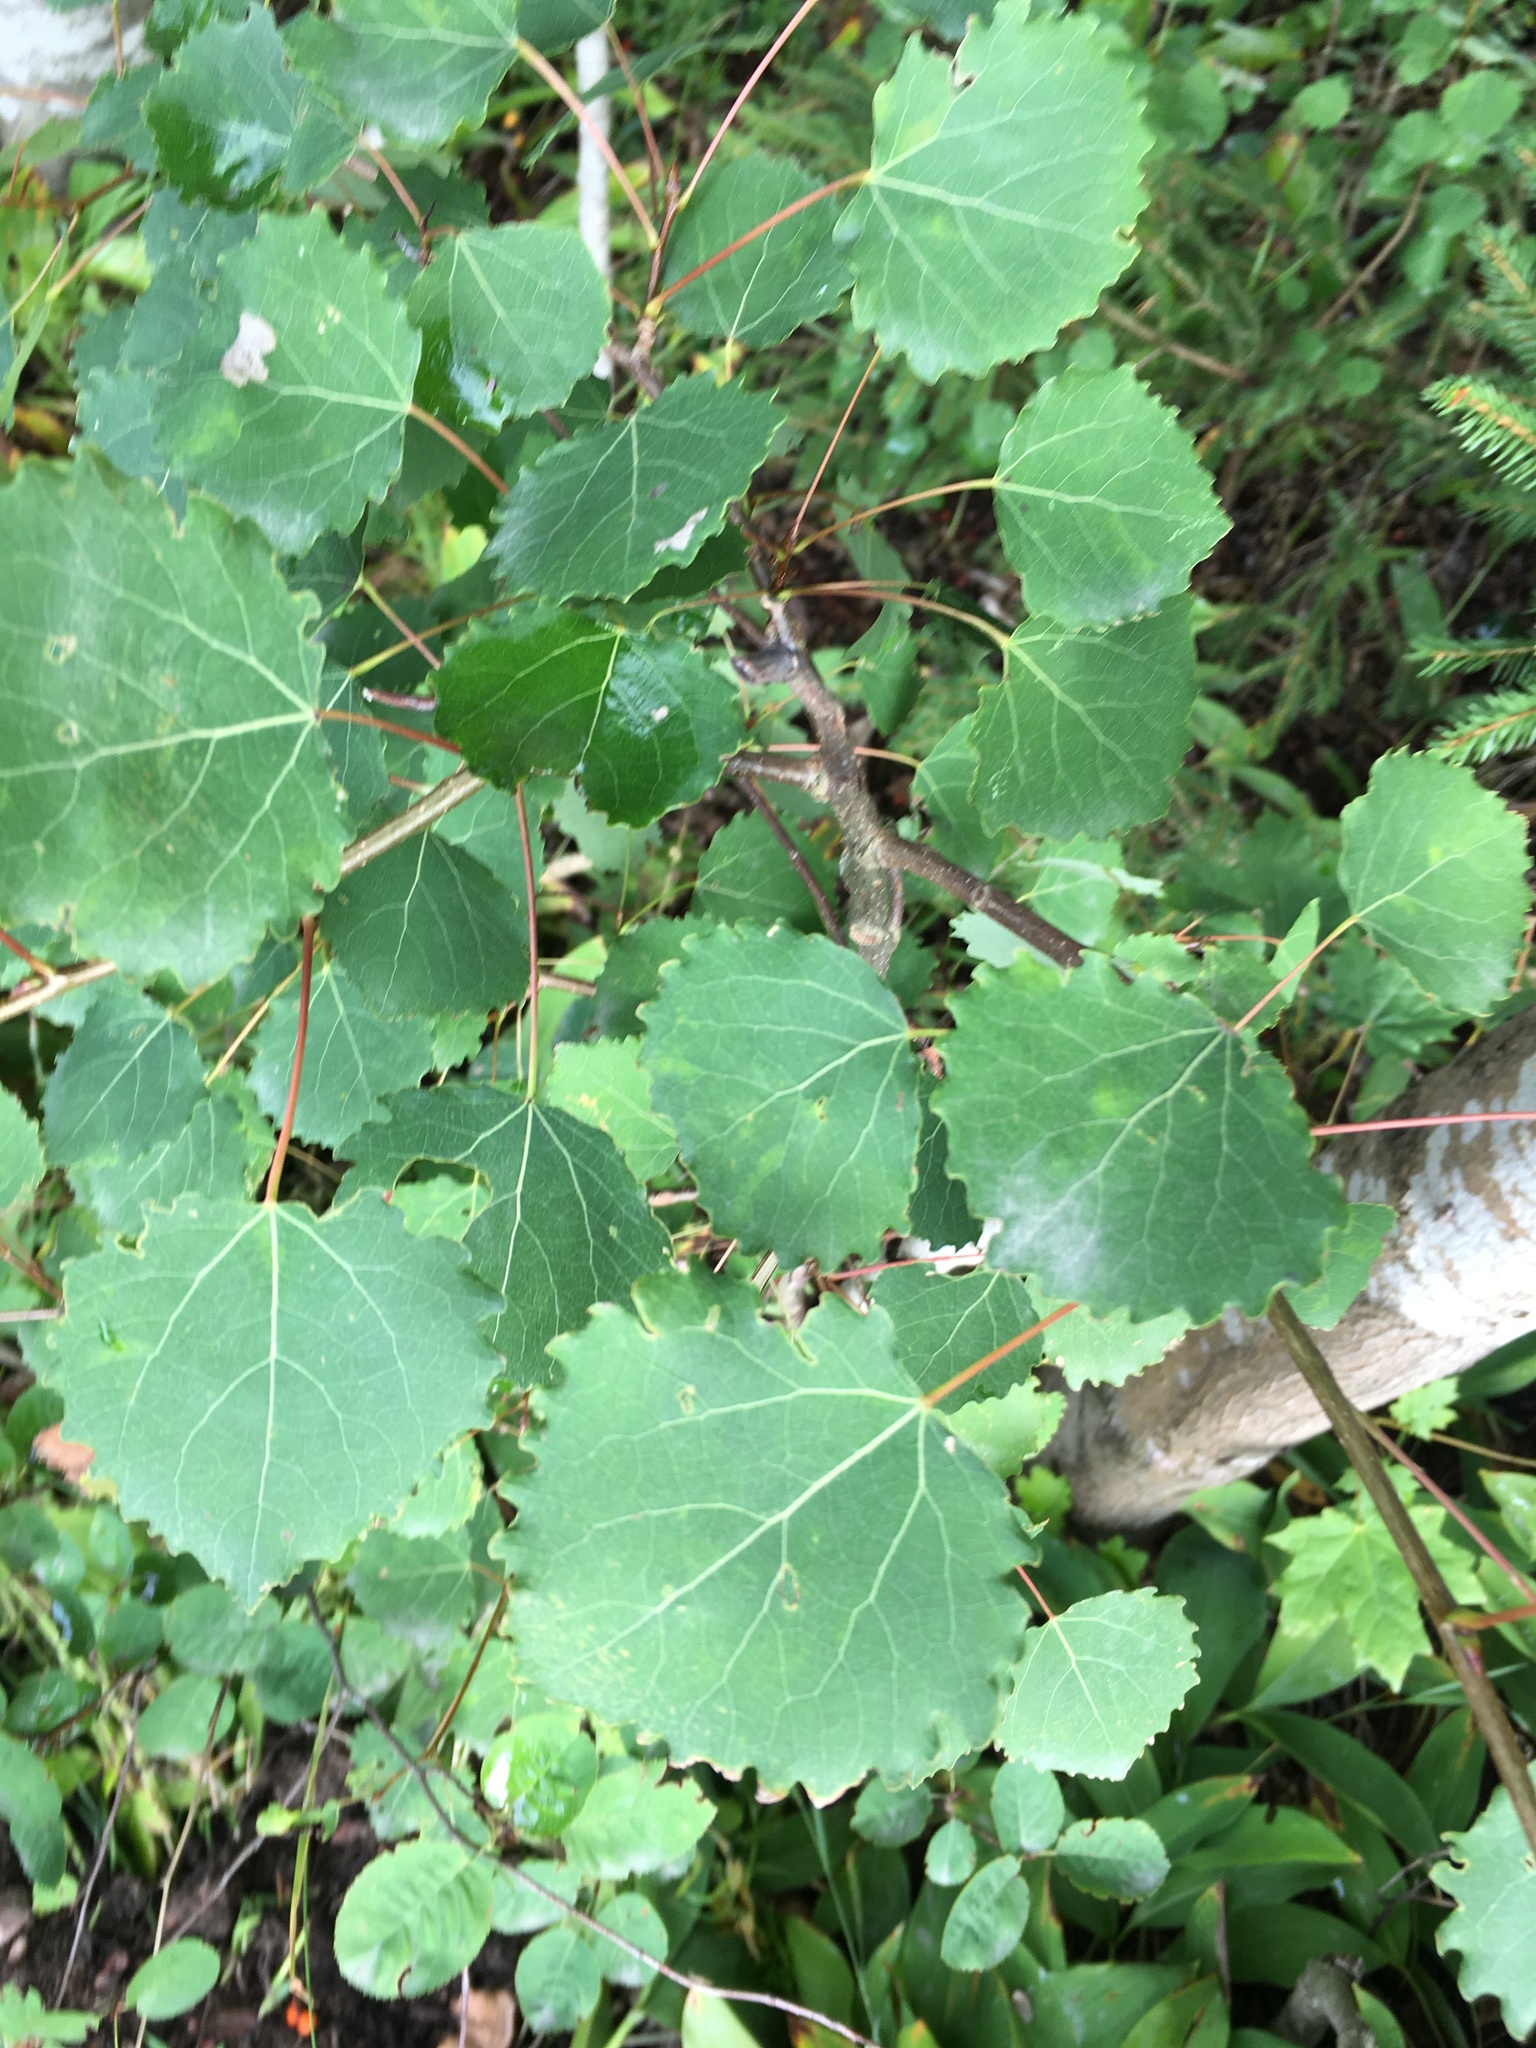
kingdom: Plantae
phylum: Tracheophyta
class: Magnoliopsida
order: Malpighiales
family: Salicaceae
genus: Populus
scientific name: Populus tremula
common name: European aspen
